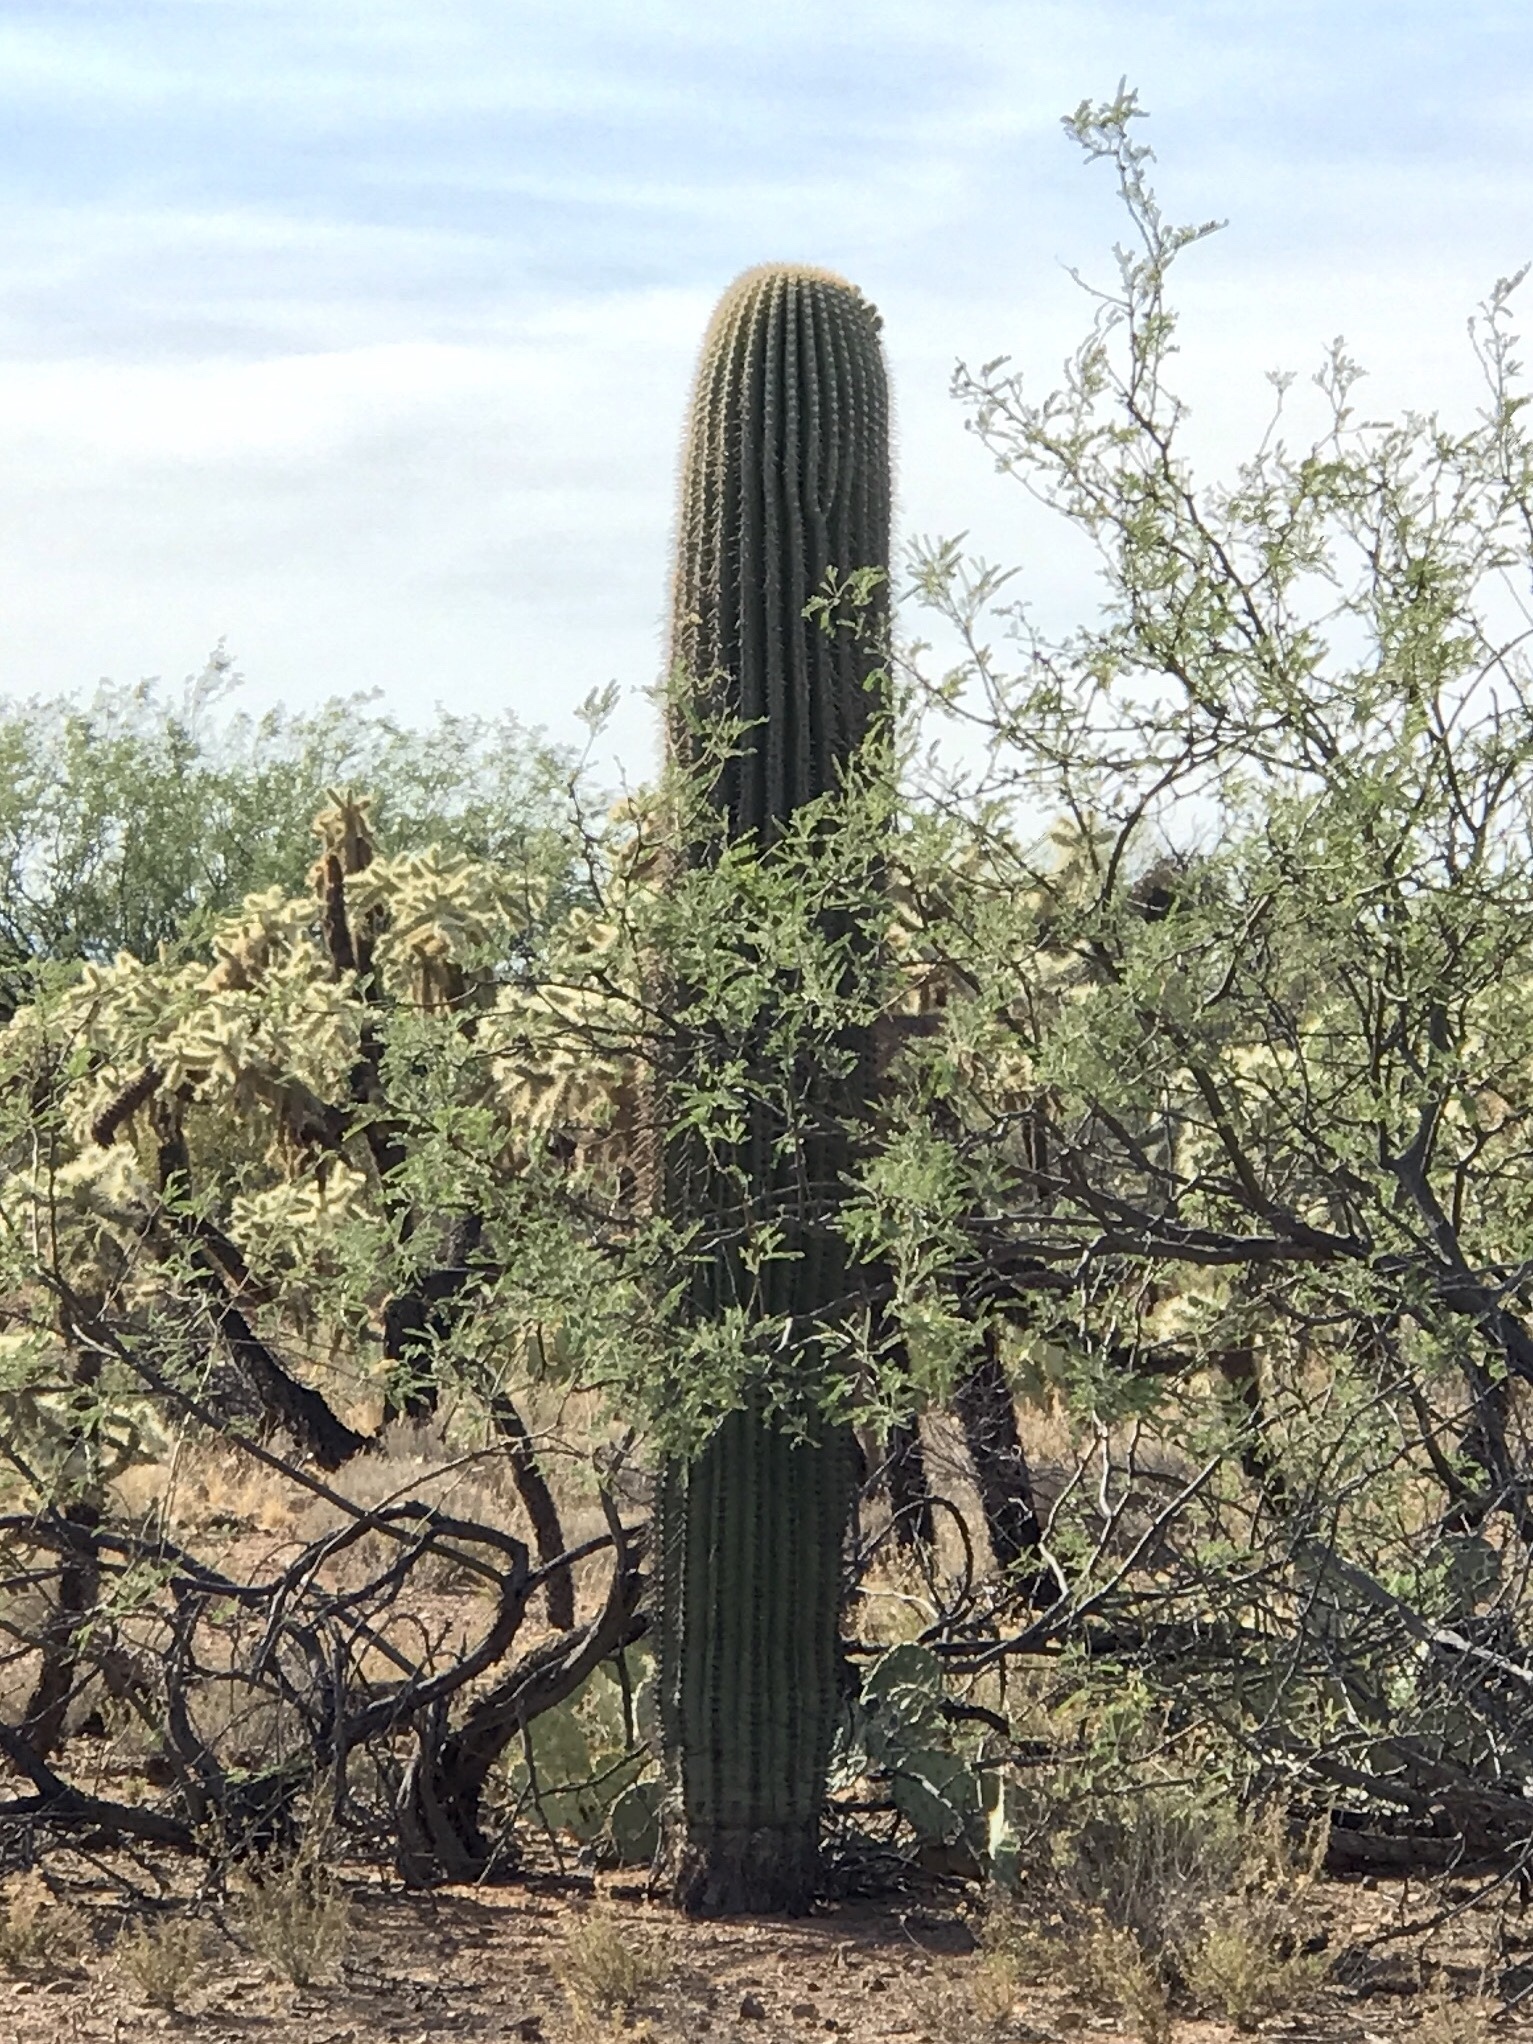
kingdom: Plantae
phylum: Tracheophyta
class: Magnoliopsida
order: Caryophyllales
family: Cactaceae
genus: Carnegiea
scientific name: Carnegiea gigantea
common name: Saguaro
